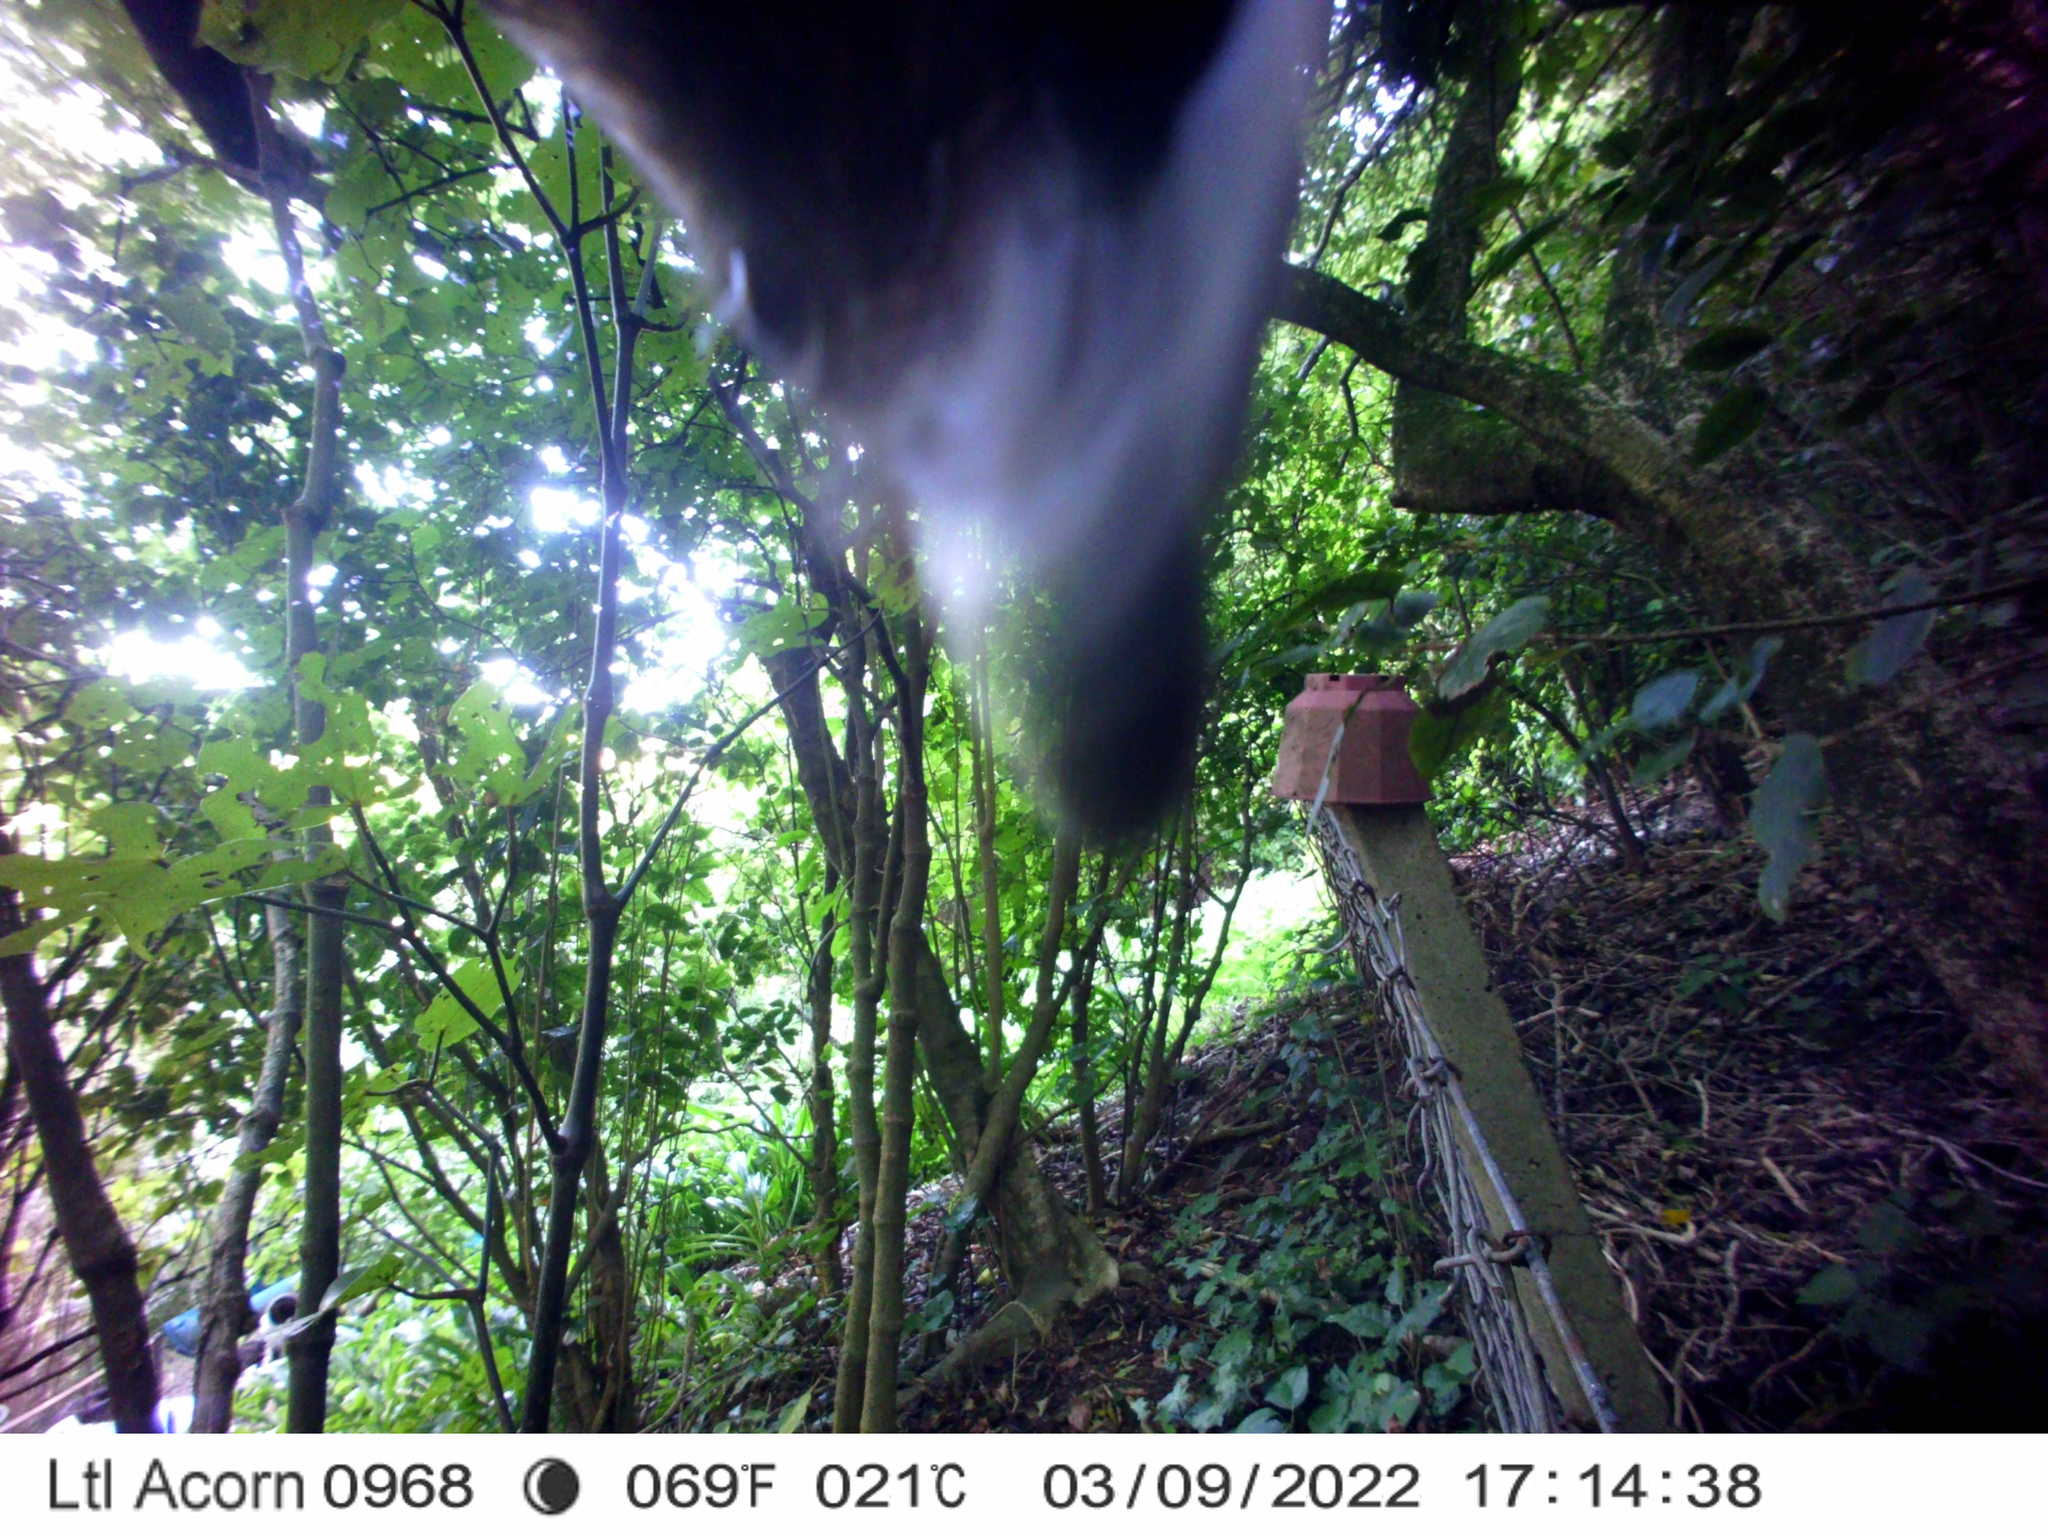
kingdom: Animalia
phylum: Chordata
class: Aves
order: Psittaciformes
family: Psittacidae
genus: Nestor
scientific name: Nestor meridionalis
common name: New zealand kaka
